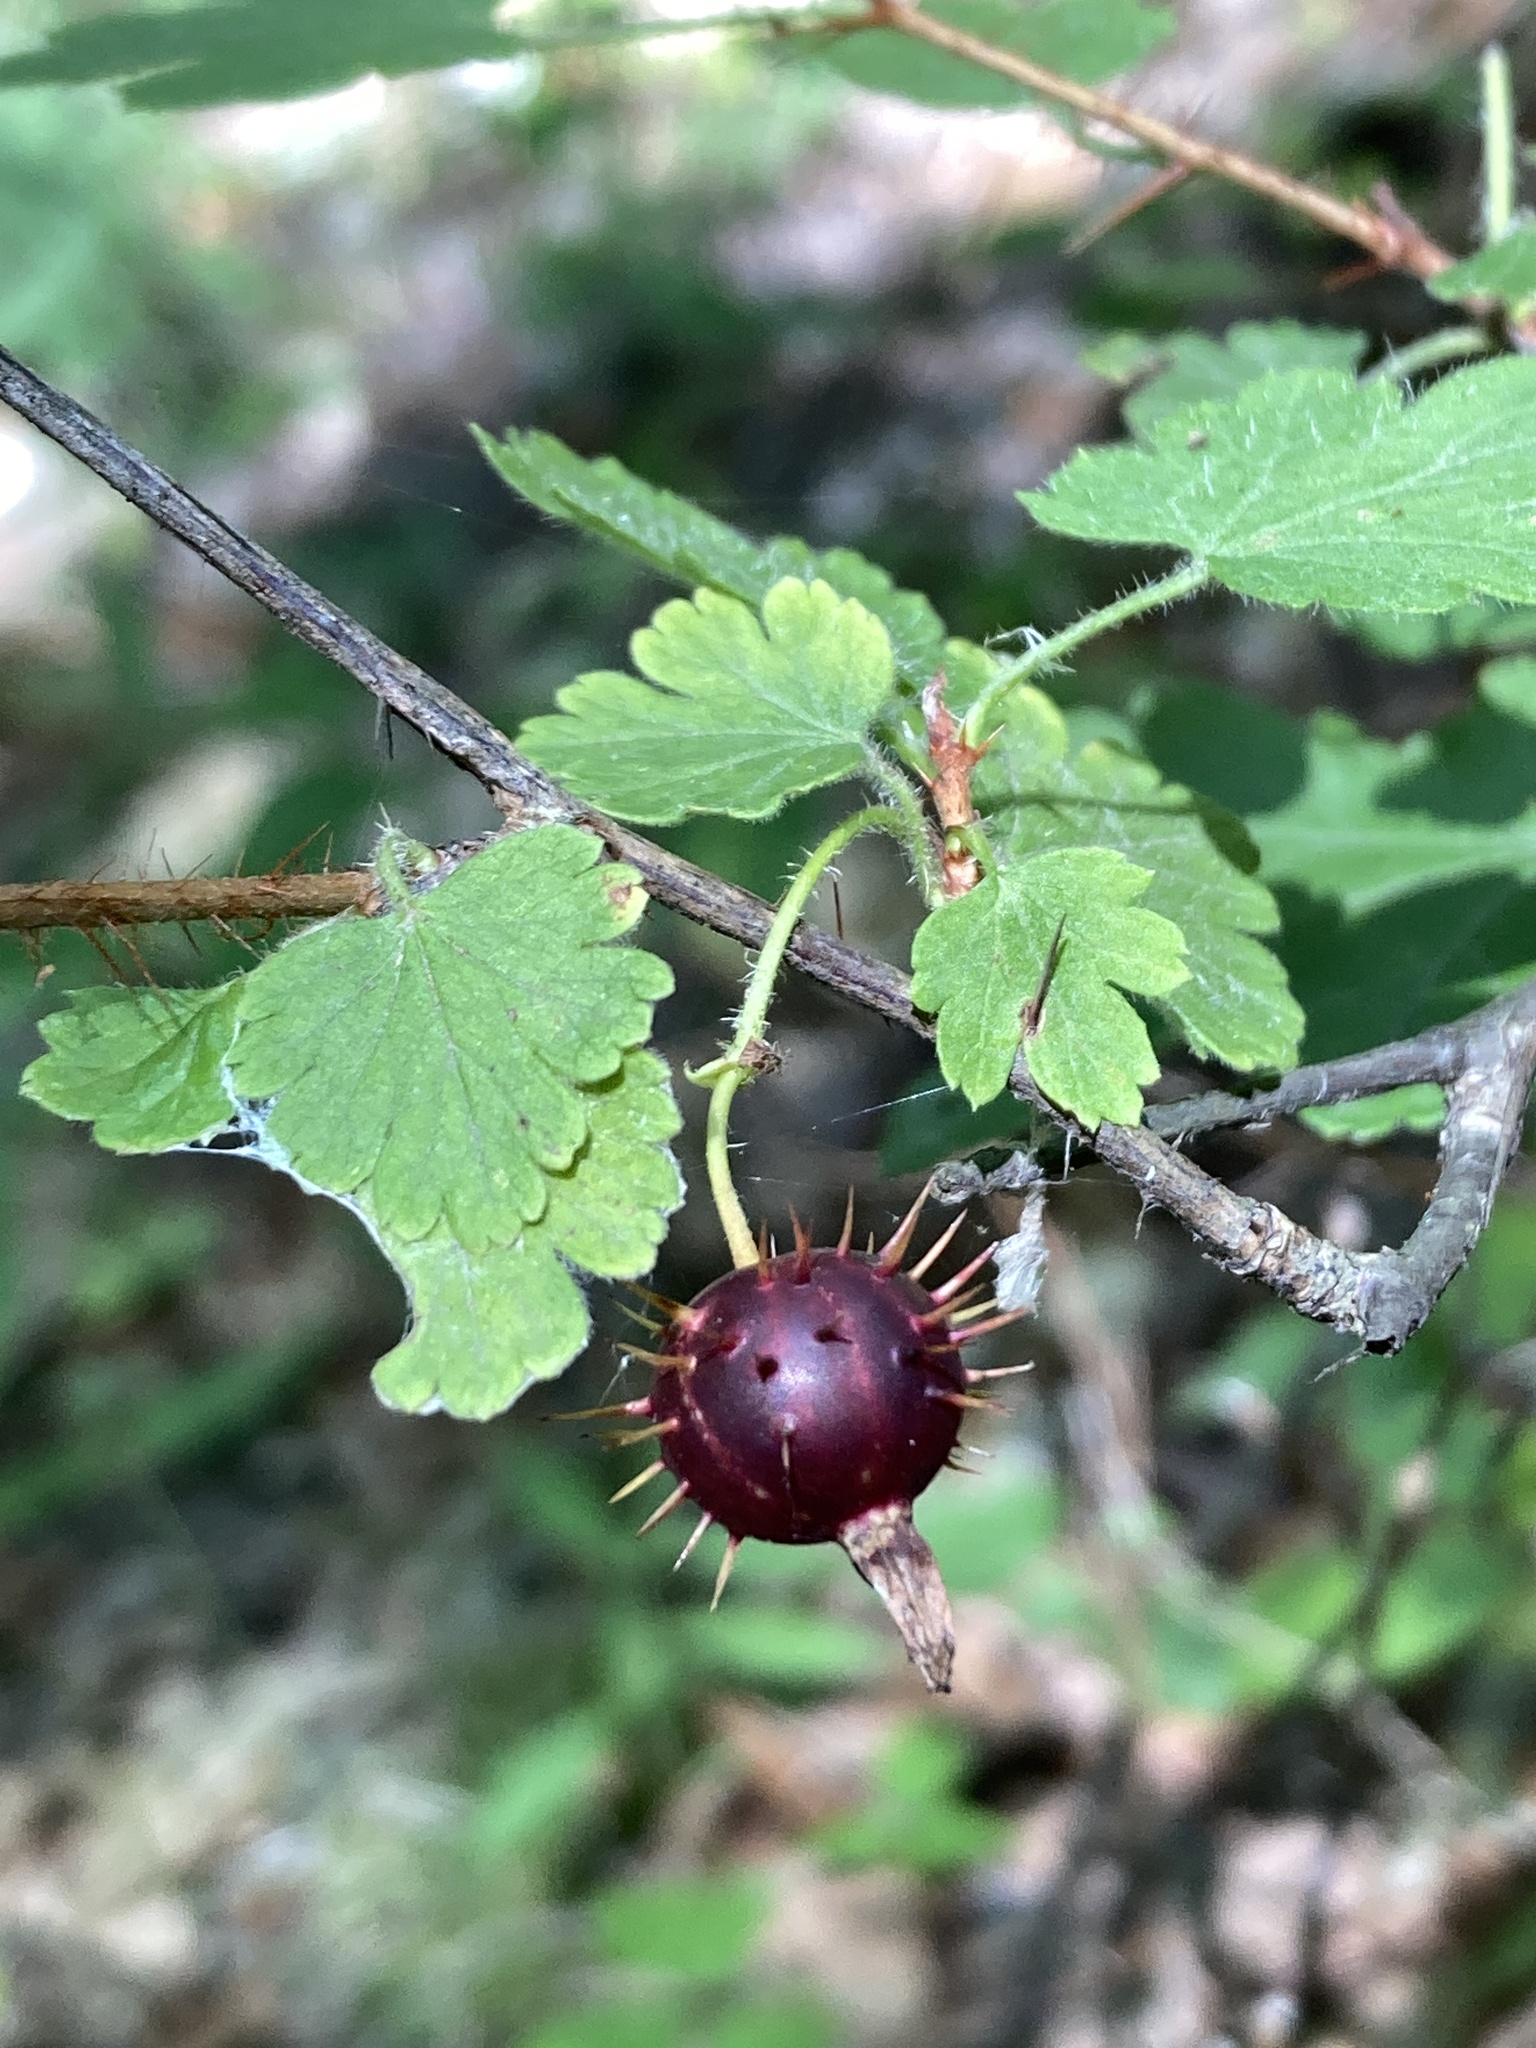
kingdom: Plantae
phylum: Tracheophyta
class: Magnoliopsida
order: Saxifragales
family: Grossulariaceae
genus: Ribes
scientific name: Ribes cynosbati
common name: American gooseberry
